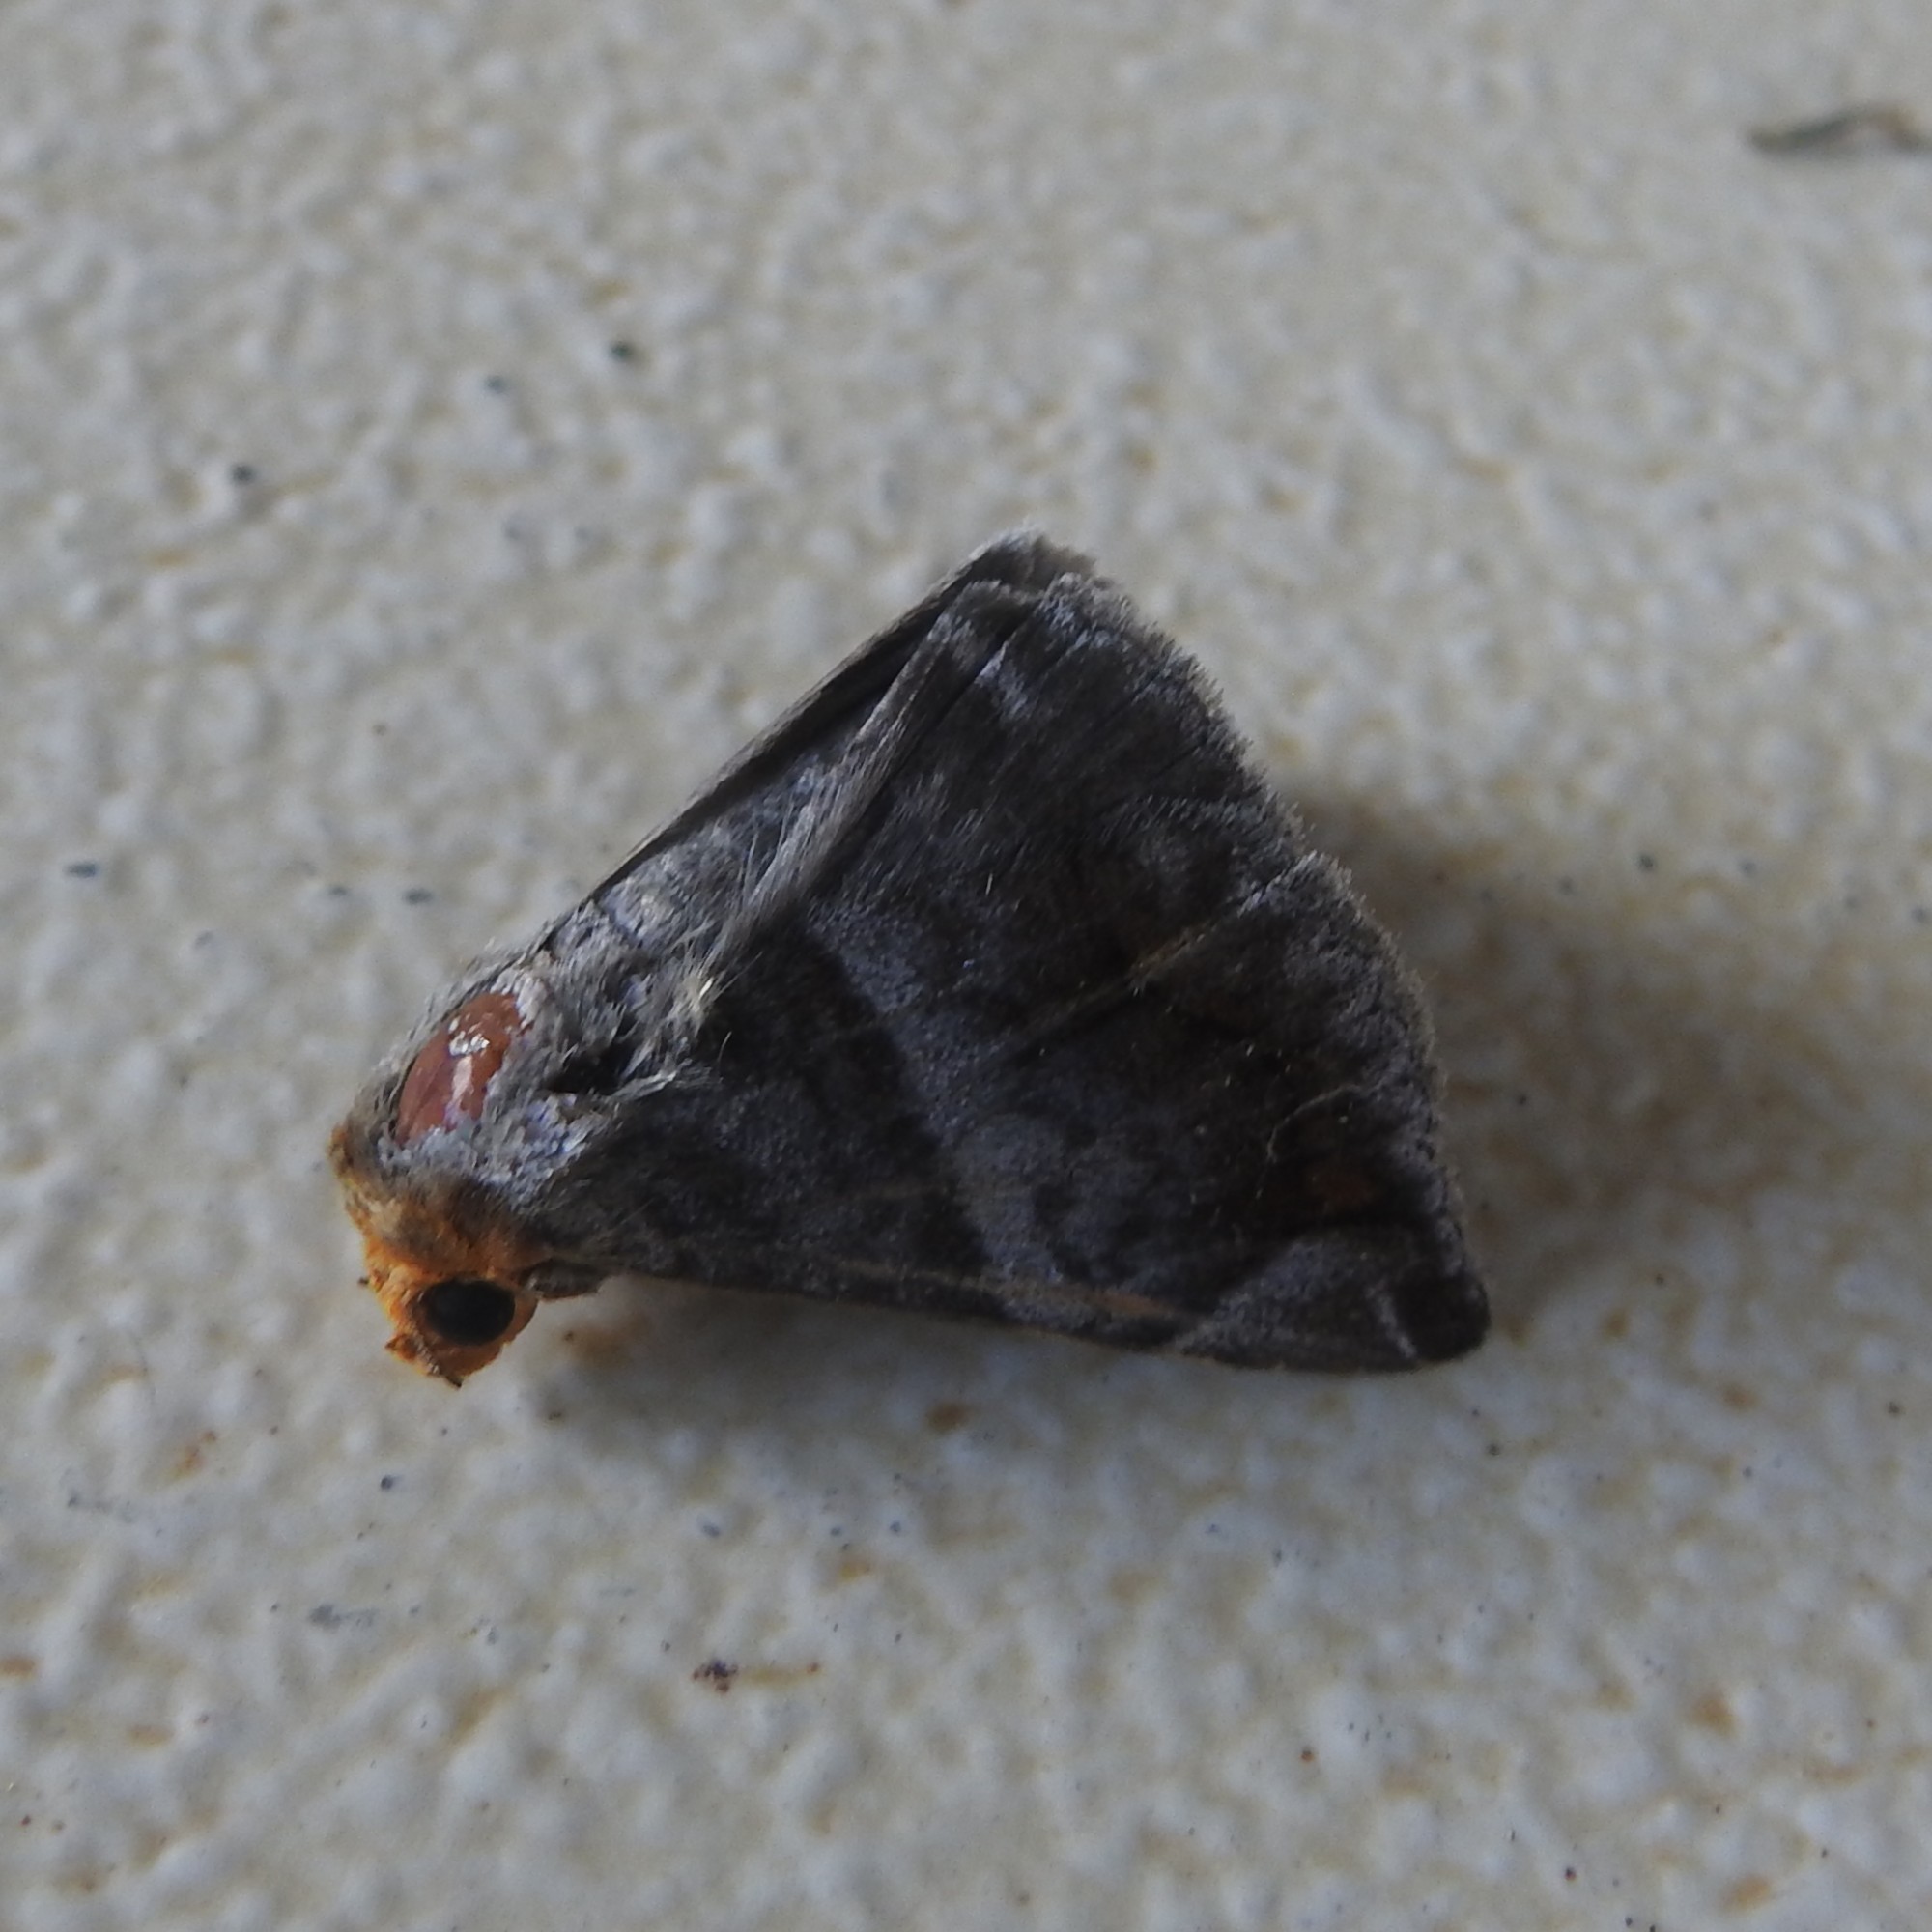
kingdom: Animalia
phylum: Arthropoda
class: Insecta
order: Lepidoptera
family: Erebidae
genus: Buzara
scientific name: Buzara onelia
